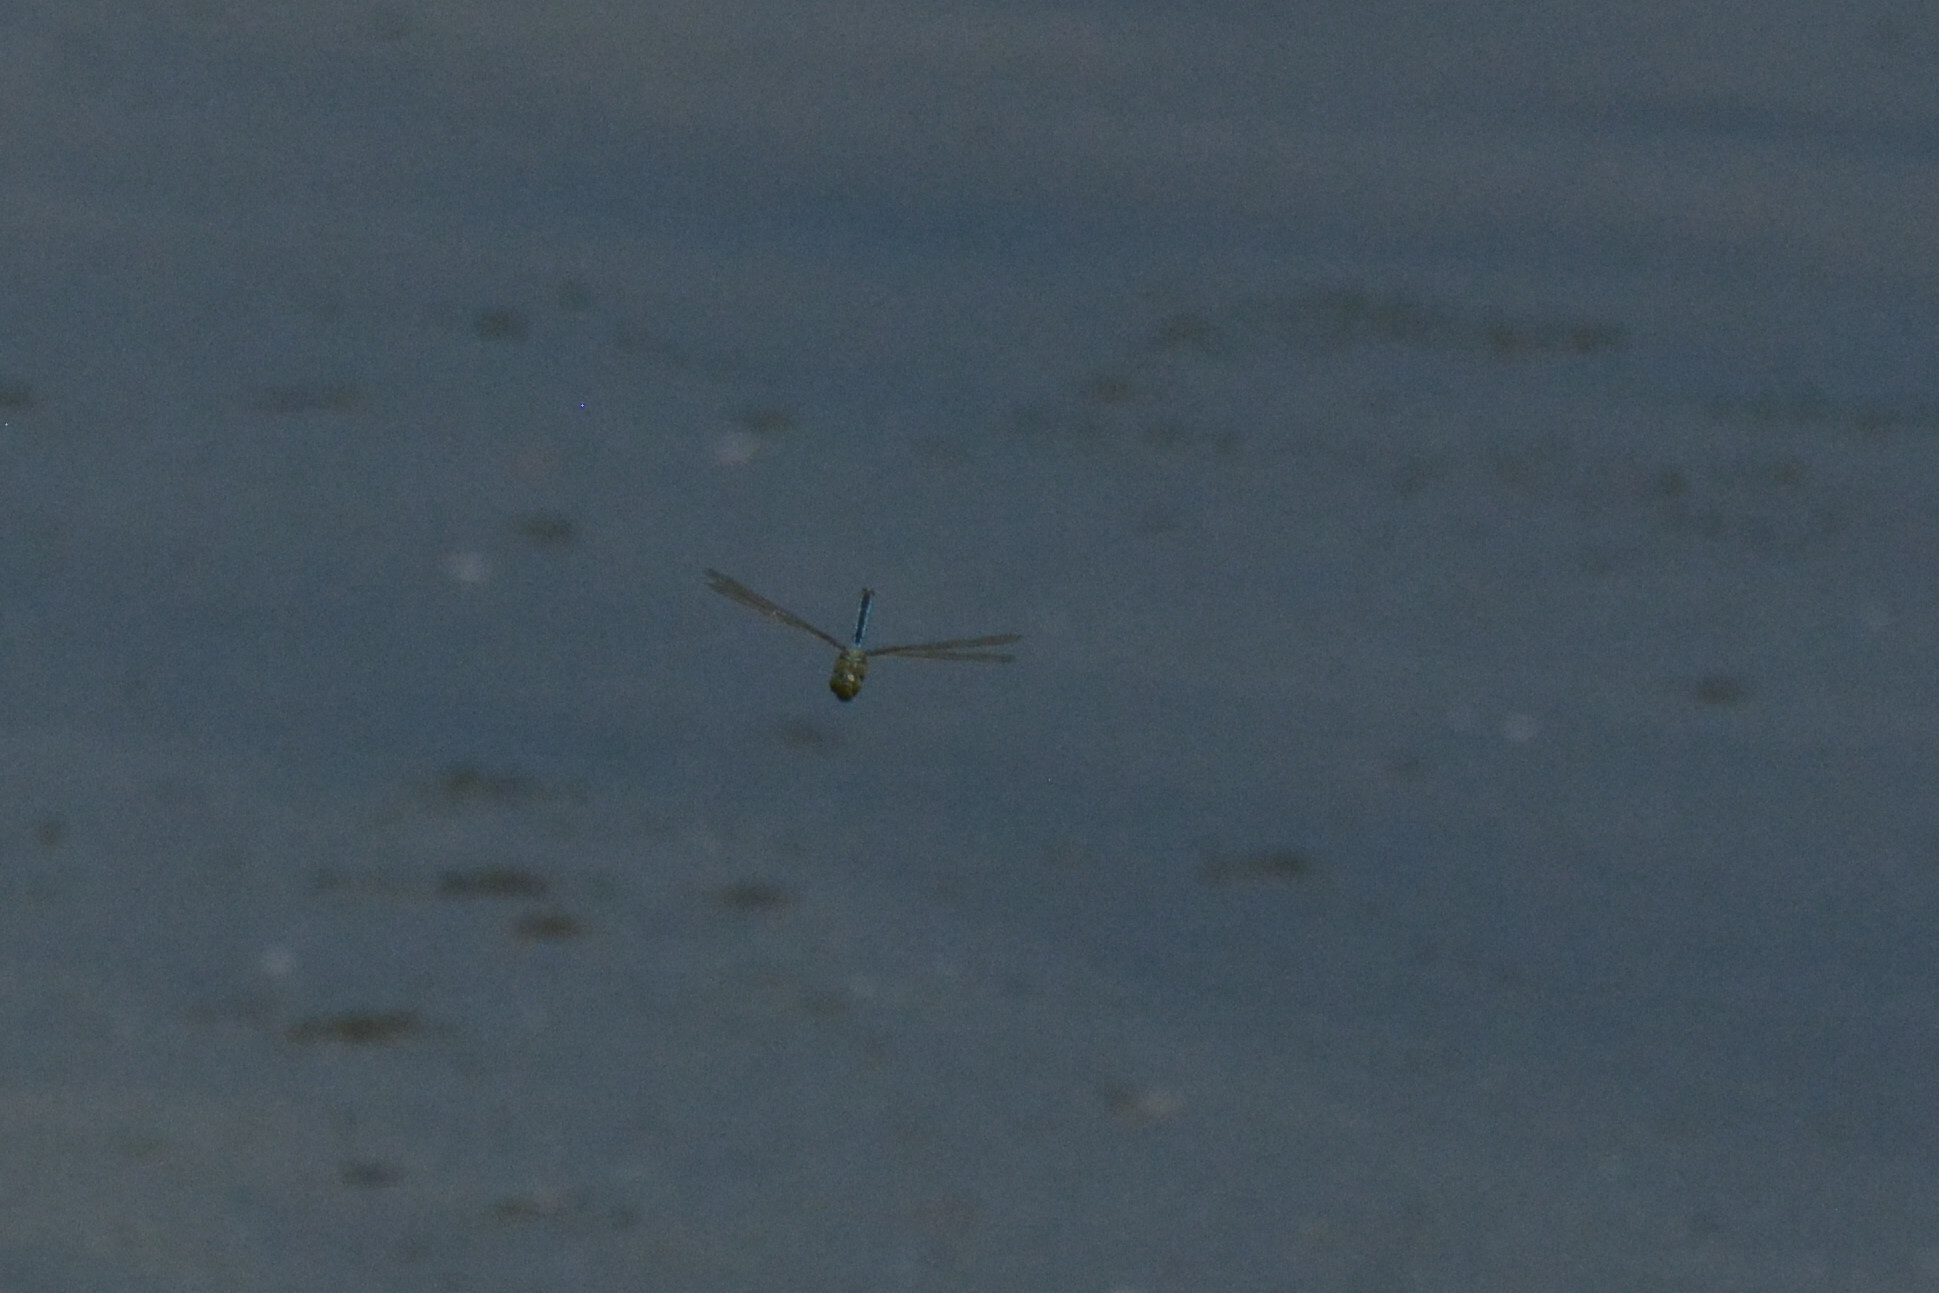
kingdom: Animalia
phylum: Arthropoda
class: Insecta
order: Odonata
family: Aeshnidae
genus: Anax
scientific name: Anax imperator
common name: Emperor dragonfly
